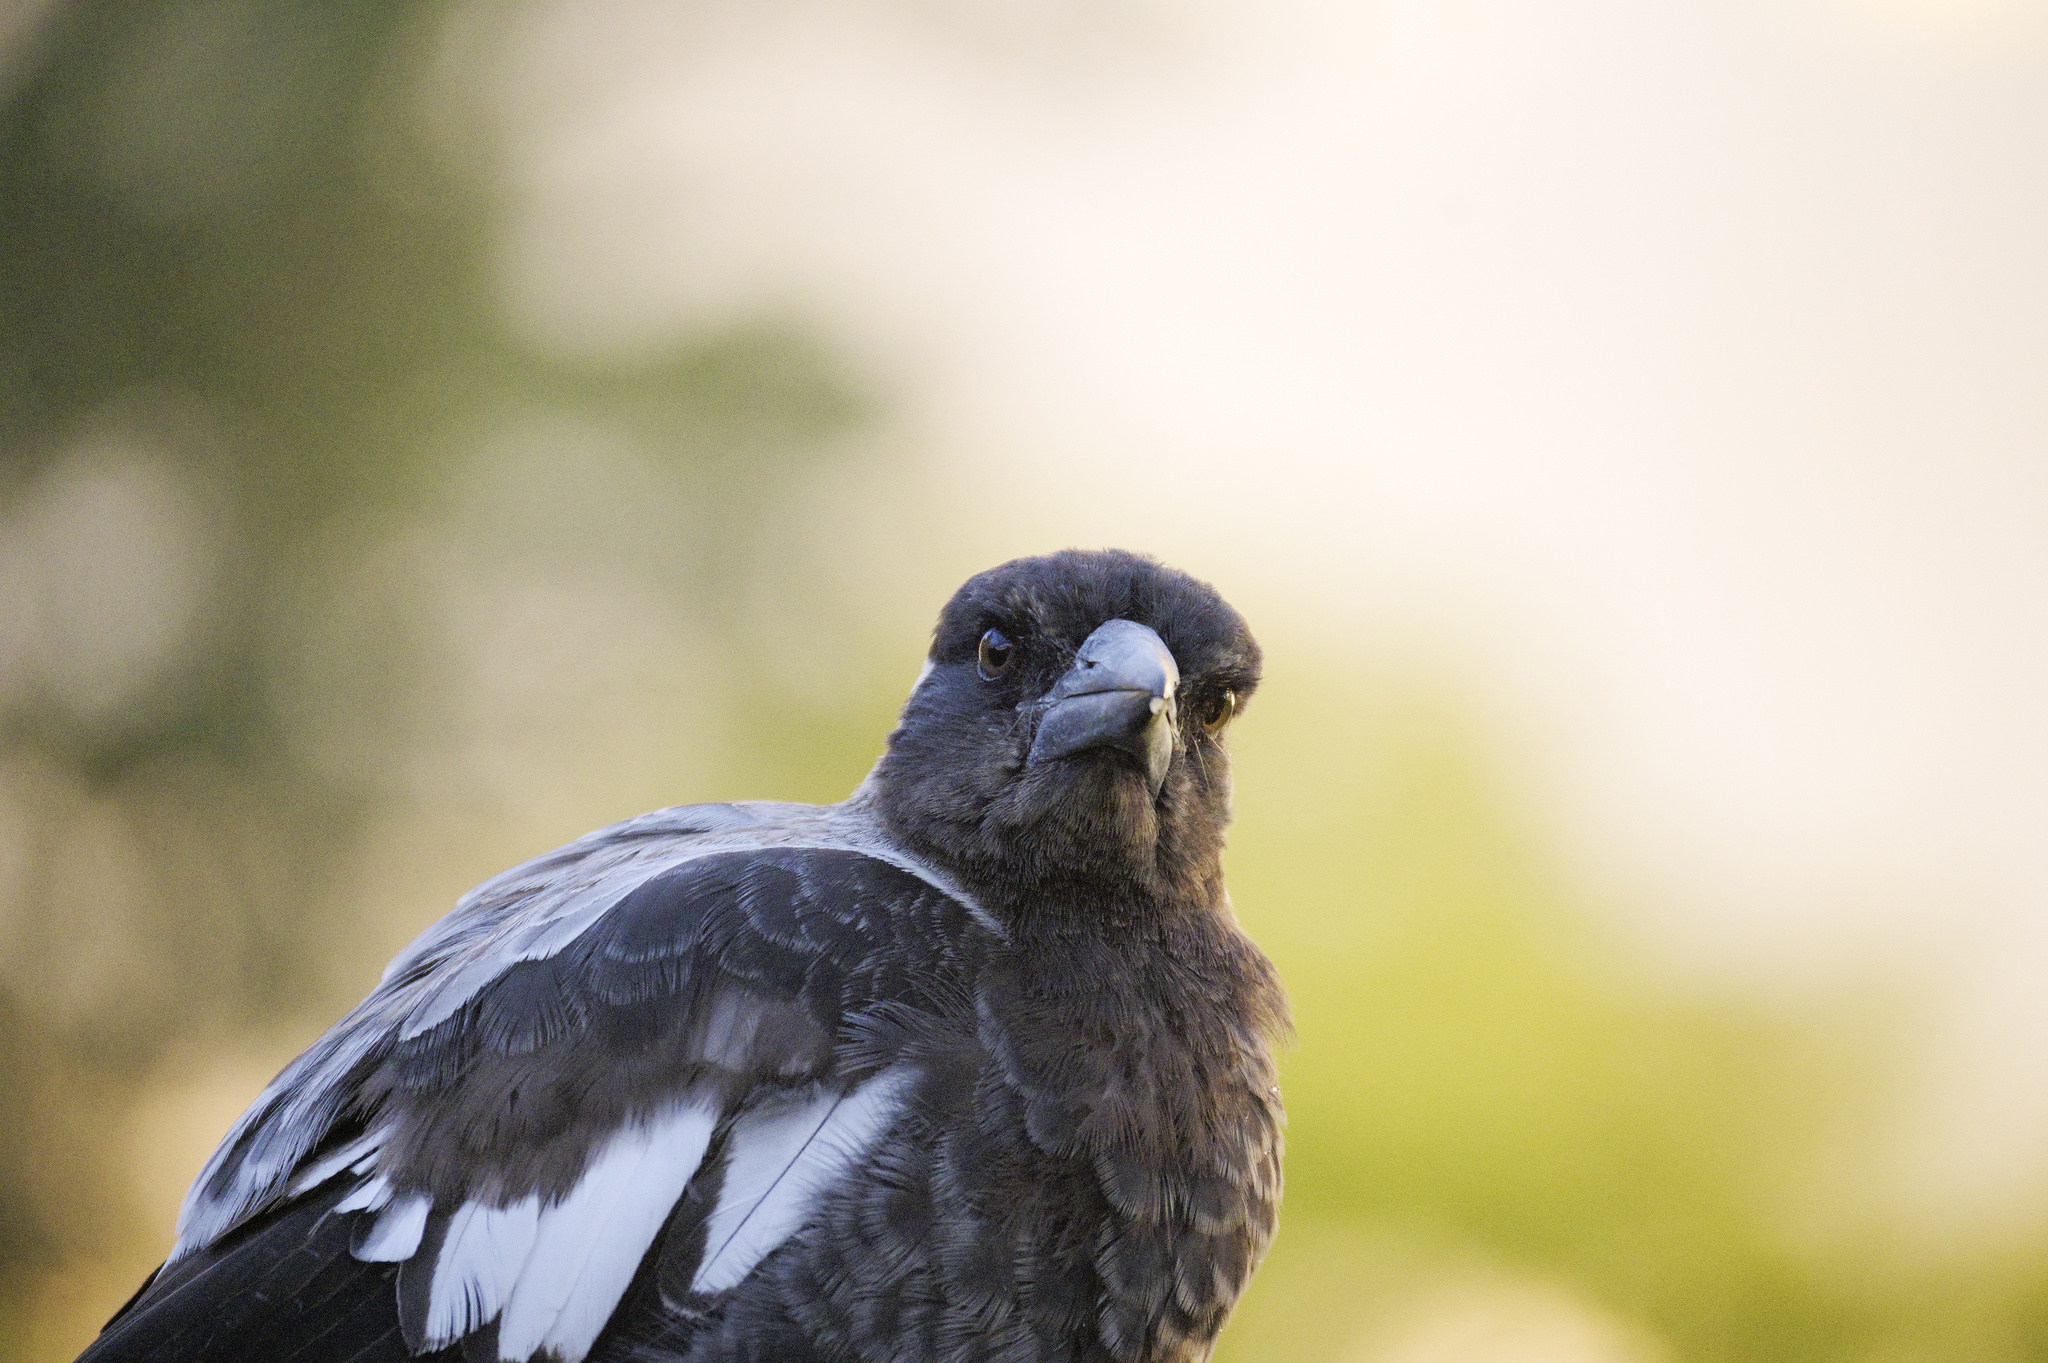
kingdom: Animalia
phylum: Chordata
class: Aves
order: Passeriformes
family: Cracticidae
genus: Gymnorhina
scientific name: Gymnorhina tibicen
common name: Australian magpie
